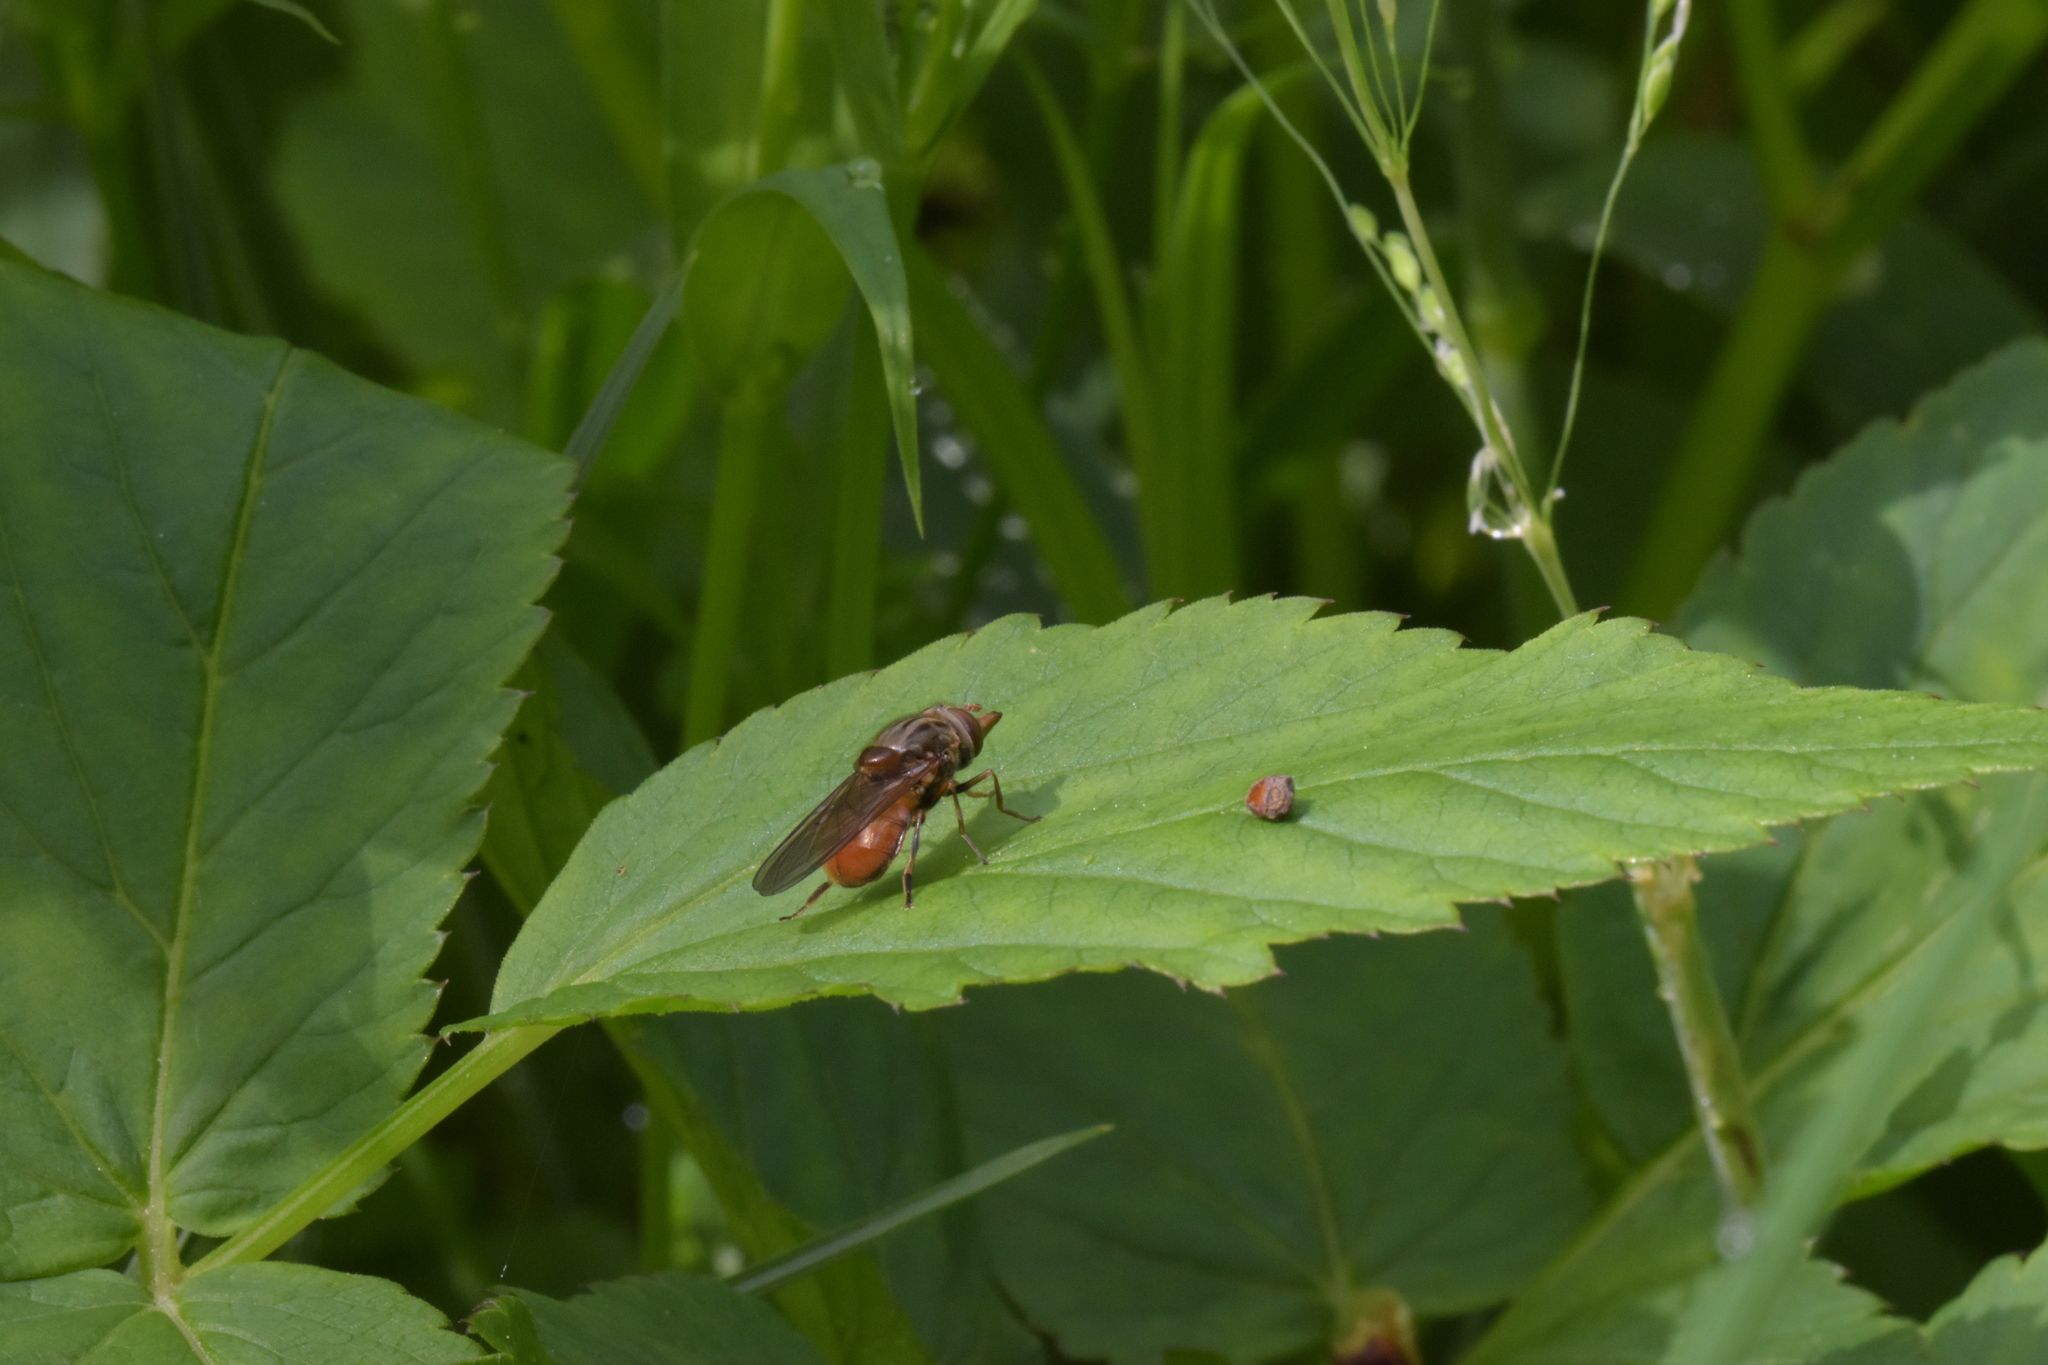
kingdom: Animalia
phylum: Arthropoda
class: Insecta
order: Diptera
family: Syrphidae
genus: Rhingia
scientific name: Rhingia campestris
